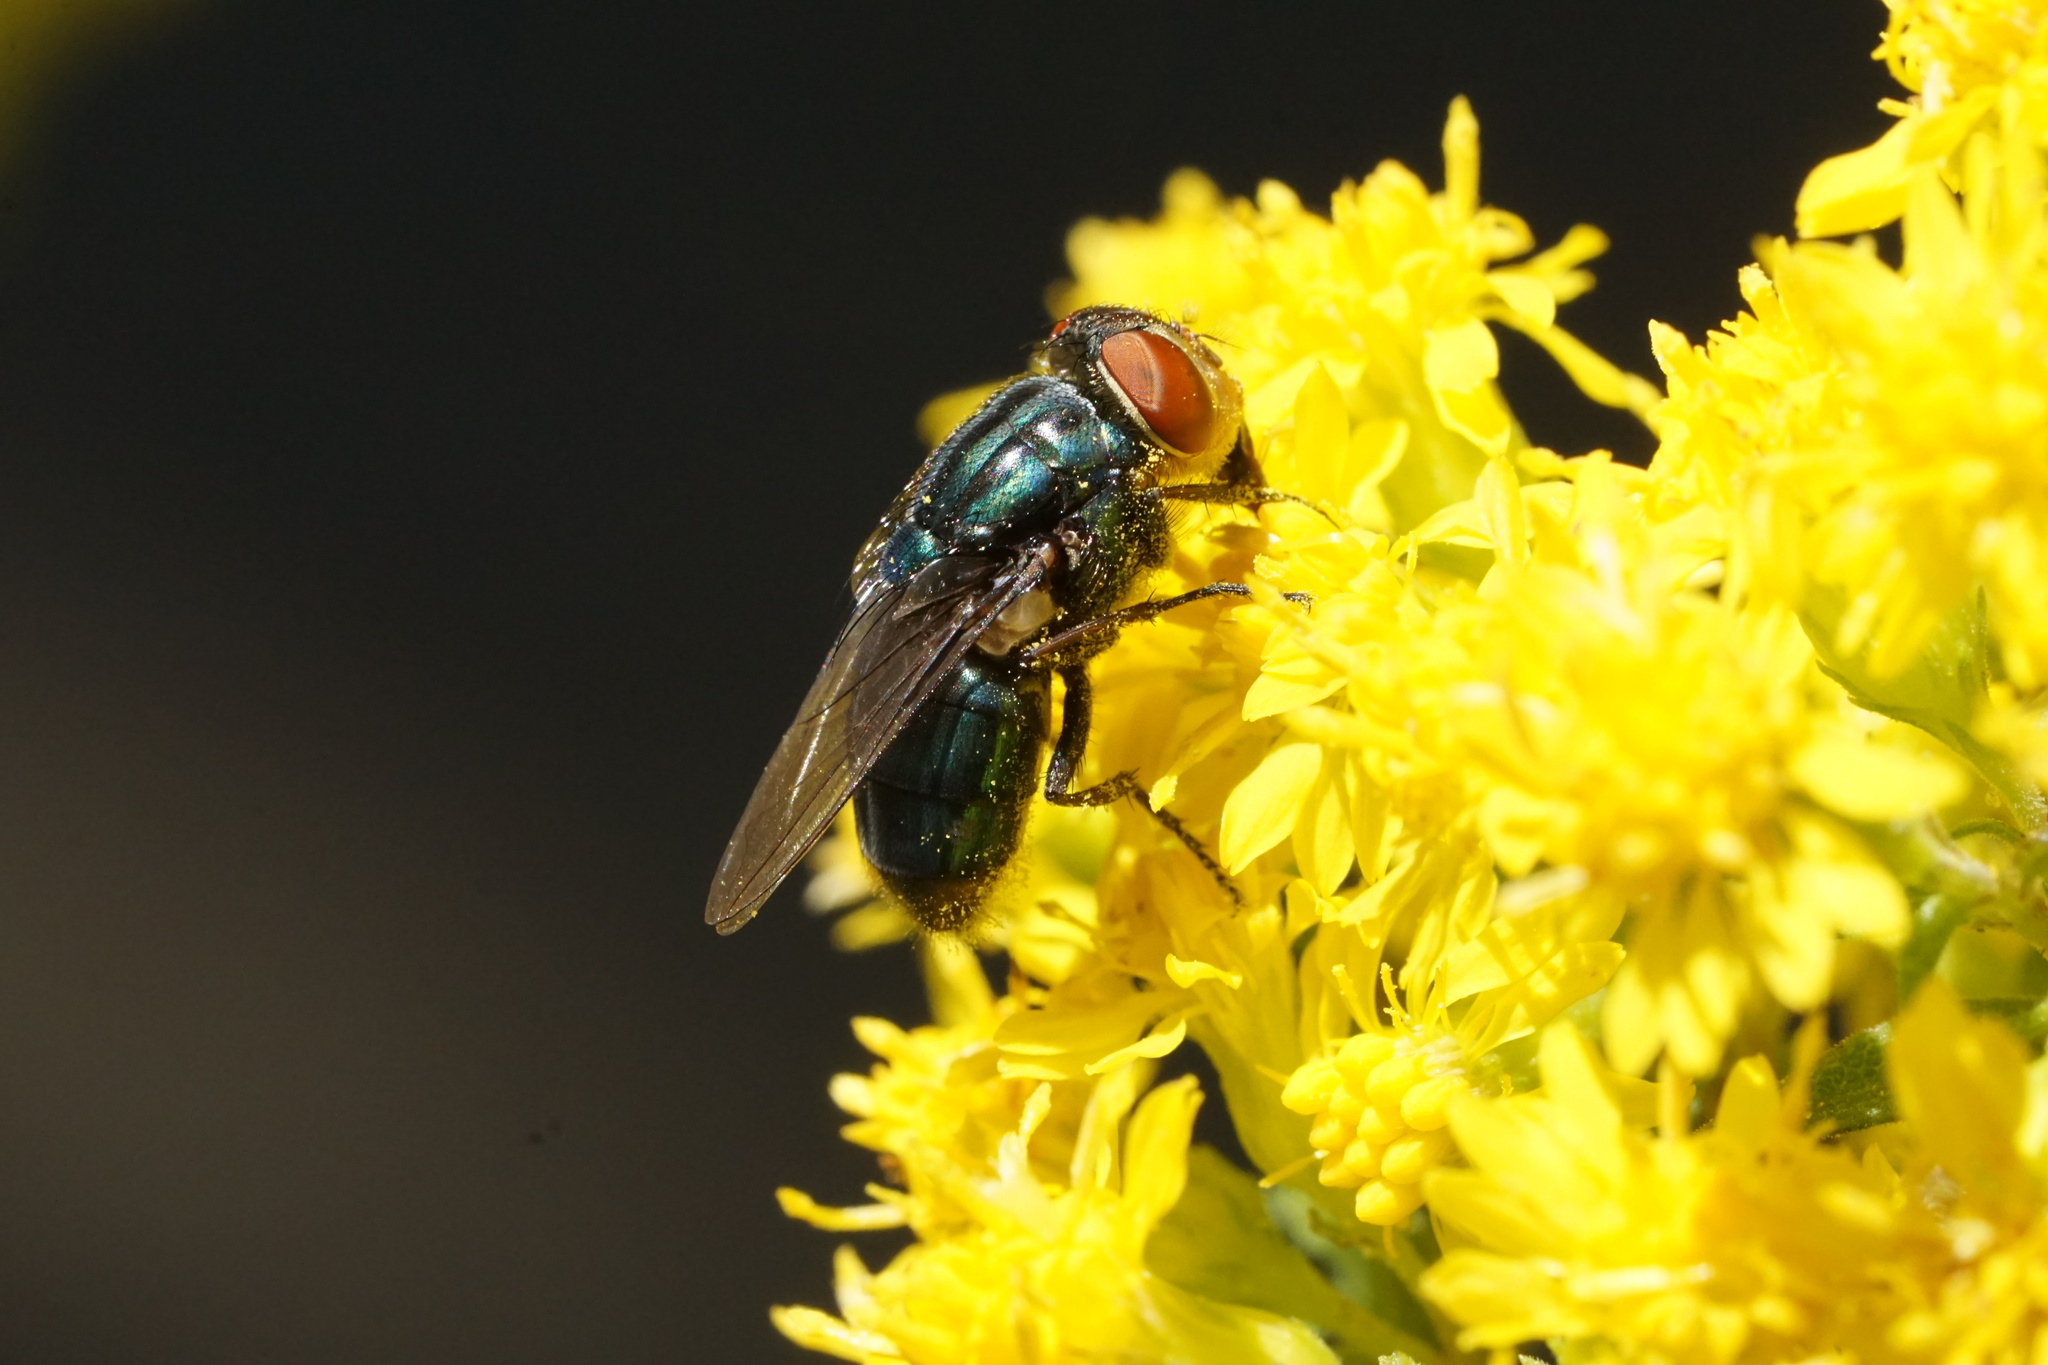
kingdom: Animalia
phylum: Arthropoda
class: Insecta
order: Diptera
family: Calliphoridae
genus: Cochliomyia
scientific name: Cochliomyia macellaria
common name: Secondary screwworm
